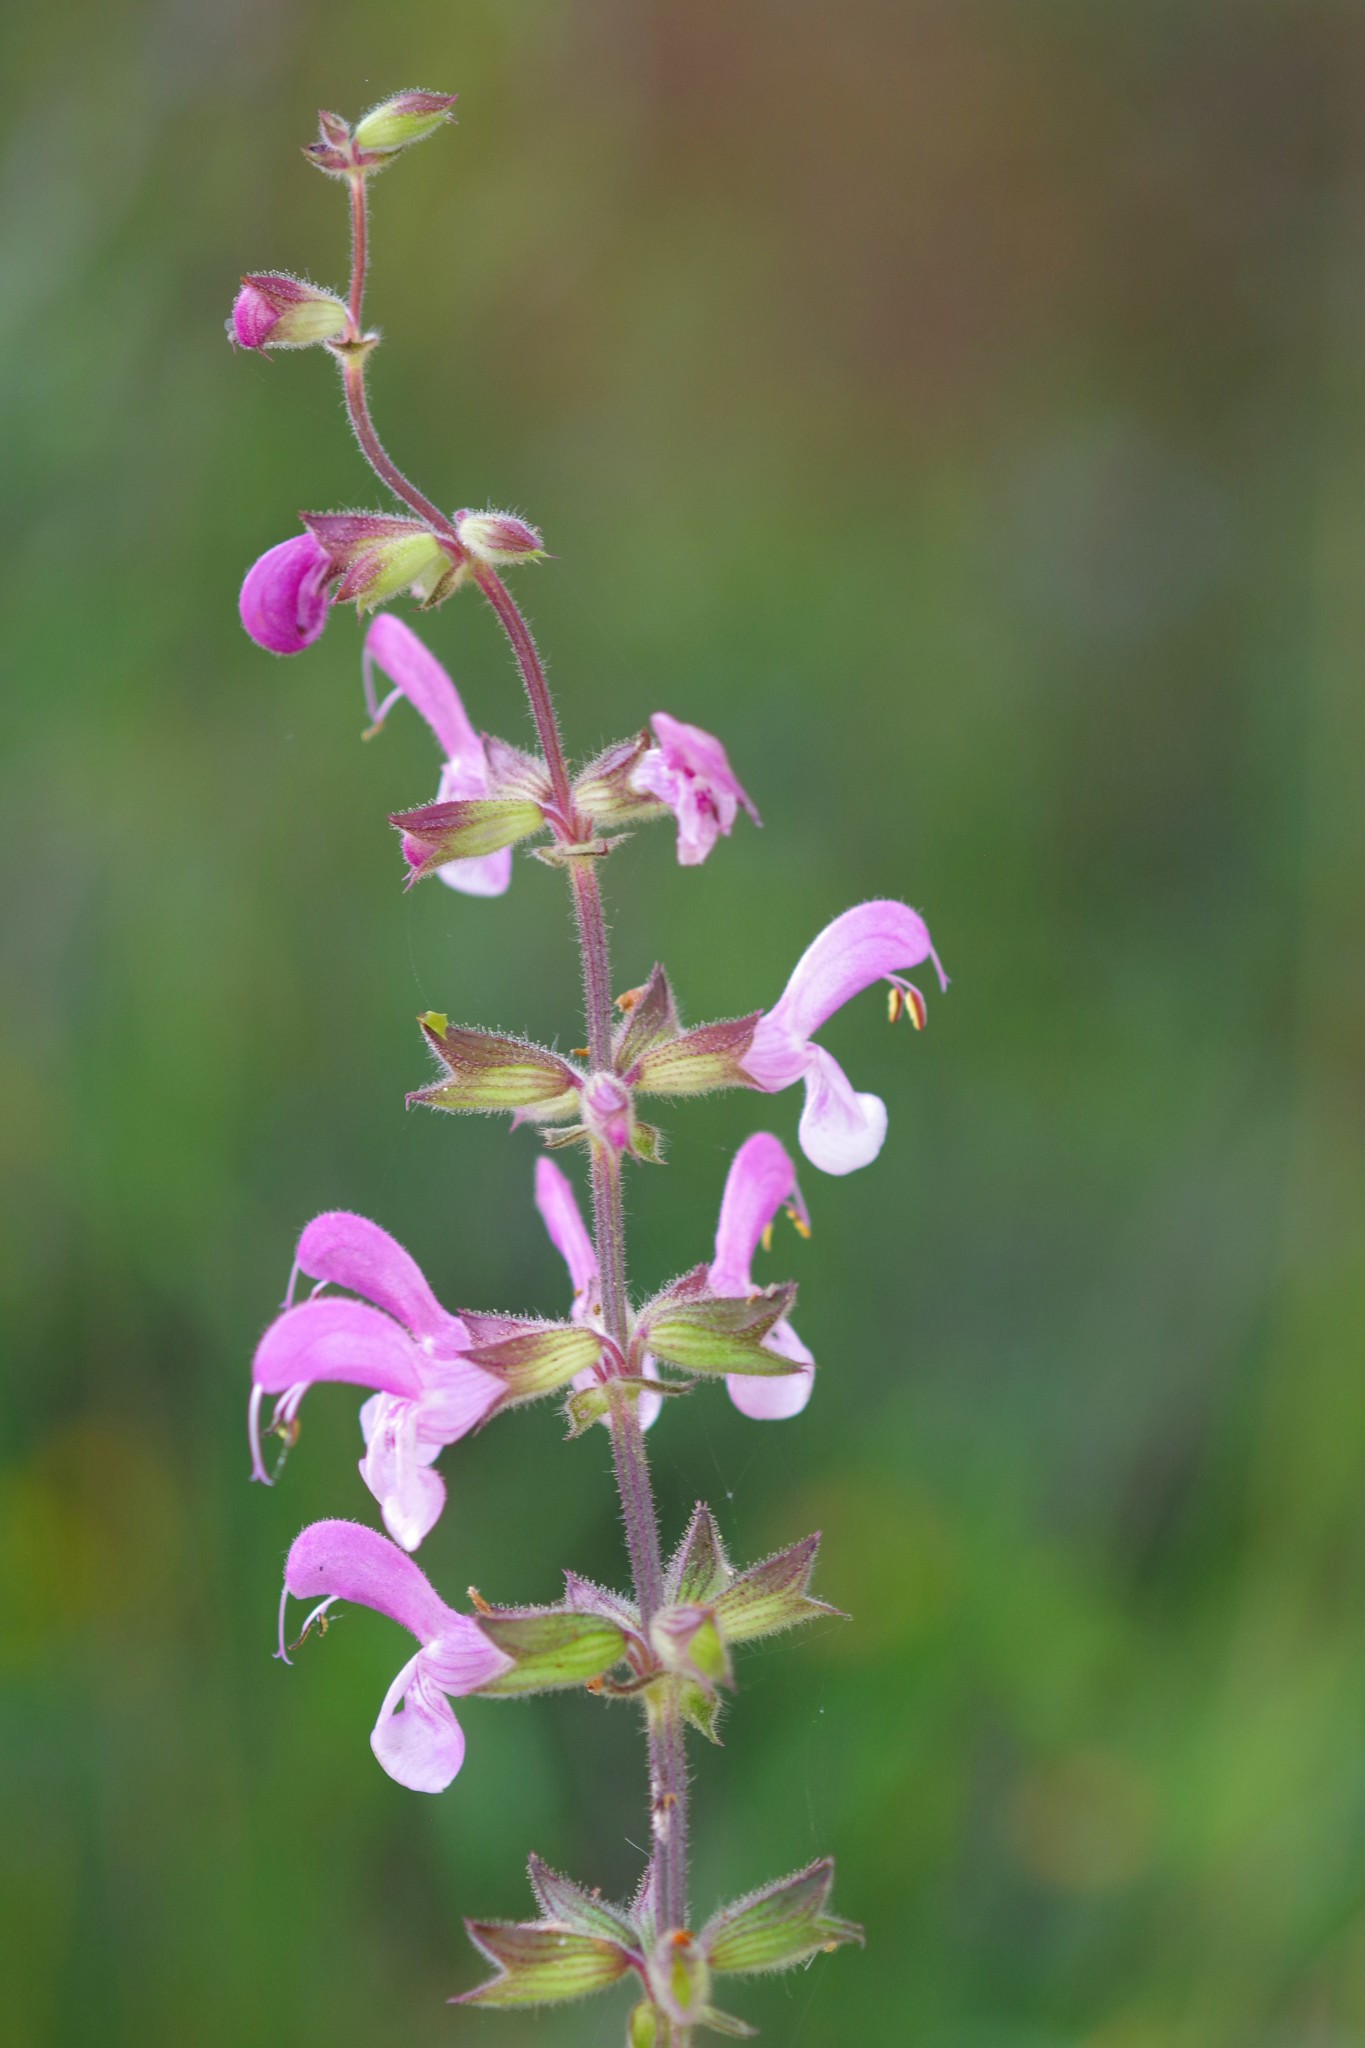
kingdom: Plantae
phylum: Tracheophyta
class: Magnoliopsida
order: Lamiales
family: Lamiaceae
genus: Salvia
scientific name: Salvia hierosolymitana
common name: Jerusalem salvia
